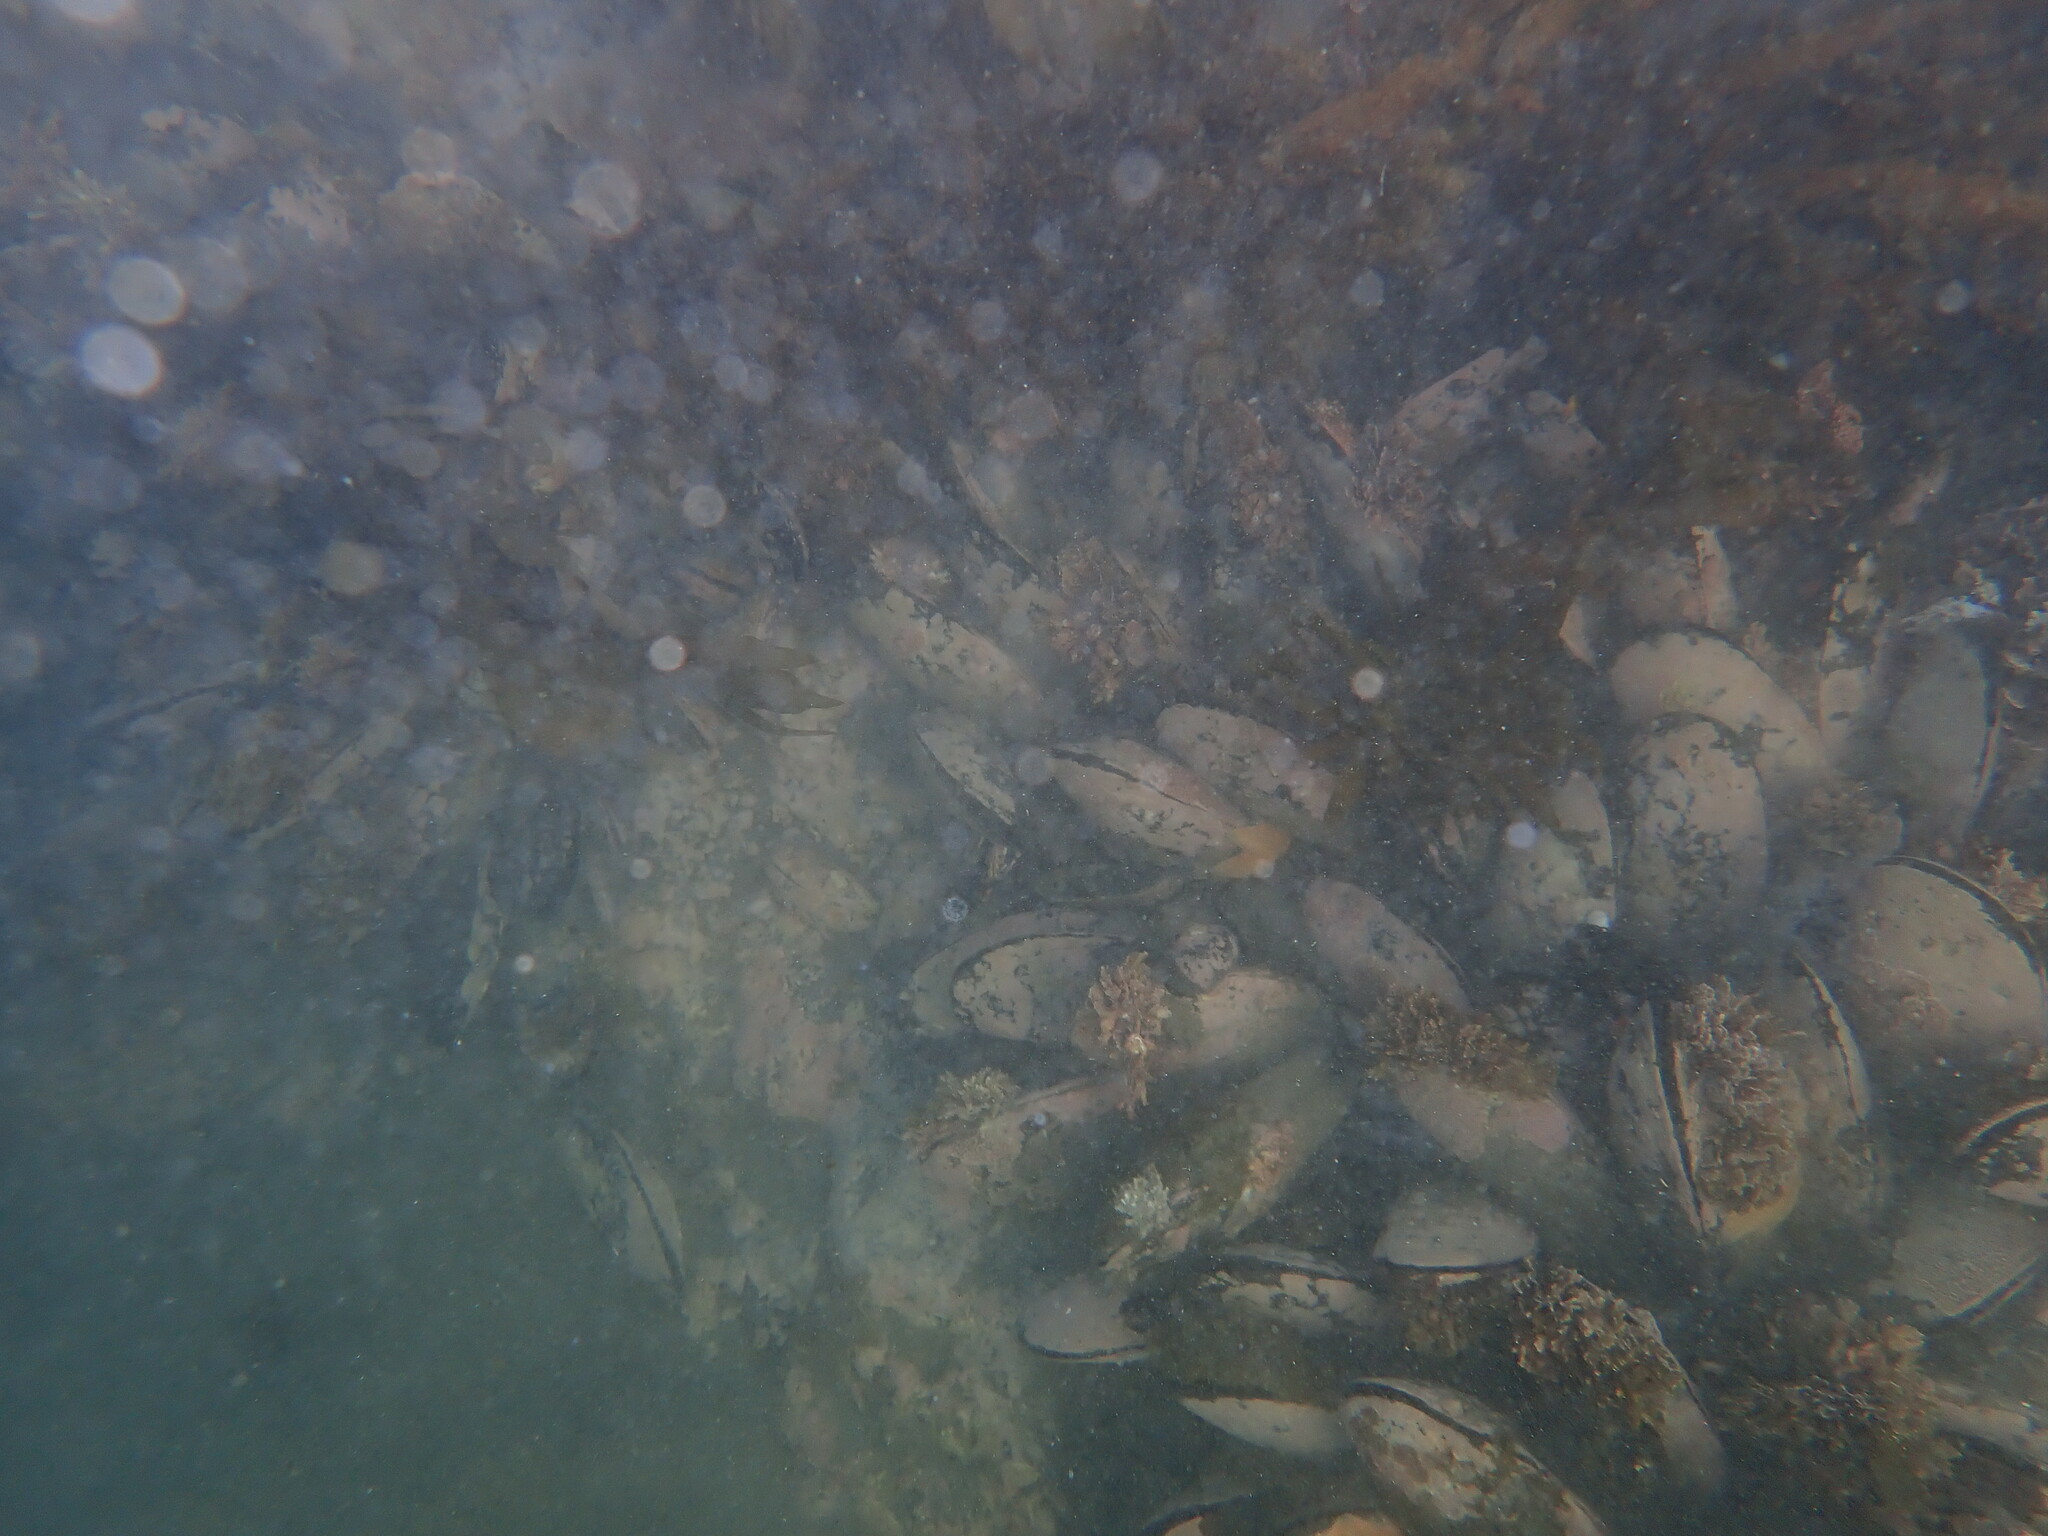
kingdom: Animalia
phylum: Mollusca
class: Bivalvia
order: Mytilida
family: Mytilidae
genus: Perna
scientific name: Perna canaliculus
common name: New zealand greenshelltm
